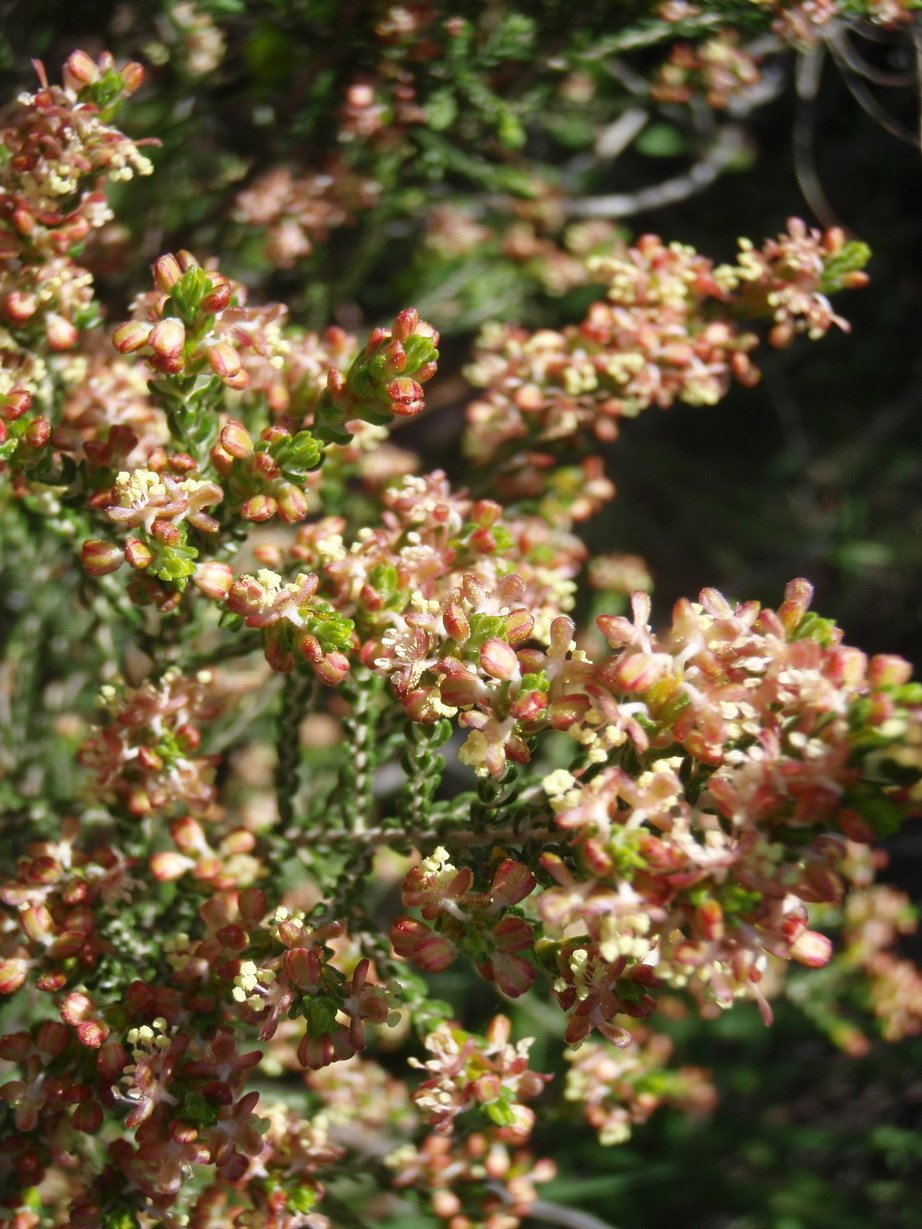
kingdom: Plantae
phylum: Tracheophyta
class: Magnoliopsida
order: Malvales
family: Thymelaeaceae
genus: Passerina
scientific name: Passerina rigida
